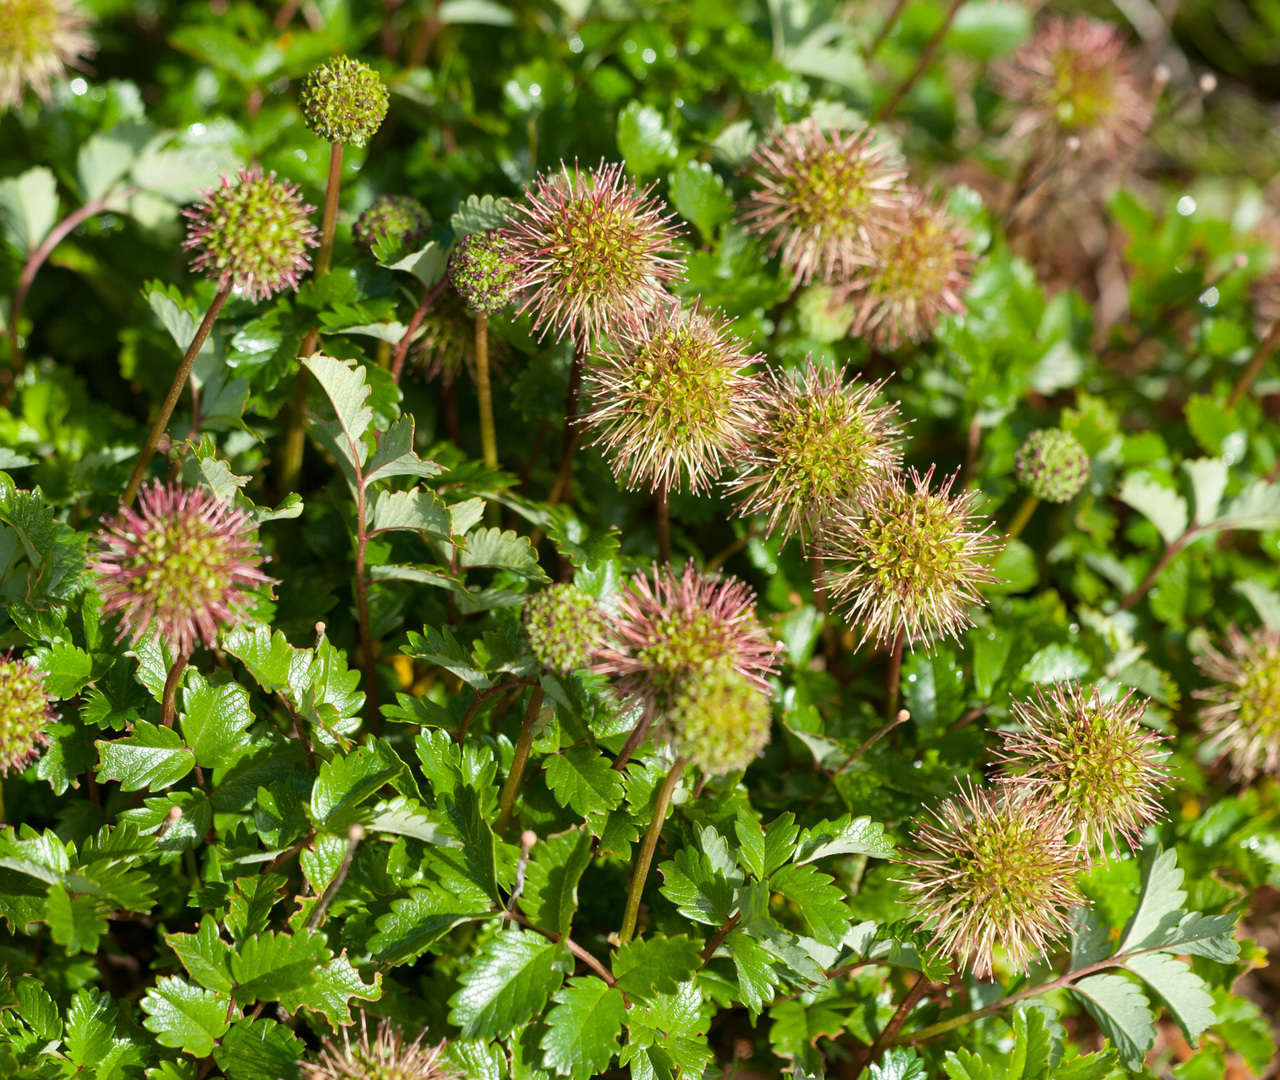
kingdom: Plantae
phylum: Tracheophyta
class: Magnoliopsida
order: Rosales
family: Rosaceae
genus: Acaena
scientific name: Acaena novae-zelandiae
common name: Pirri-pirri-bur
